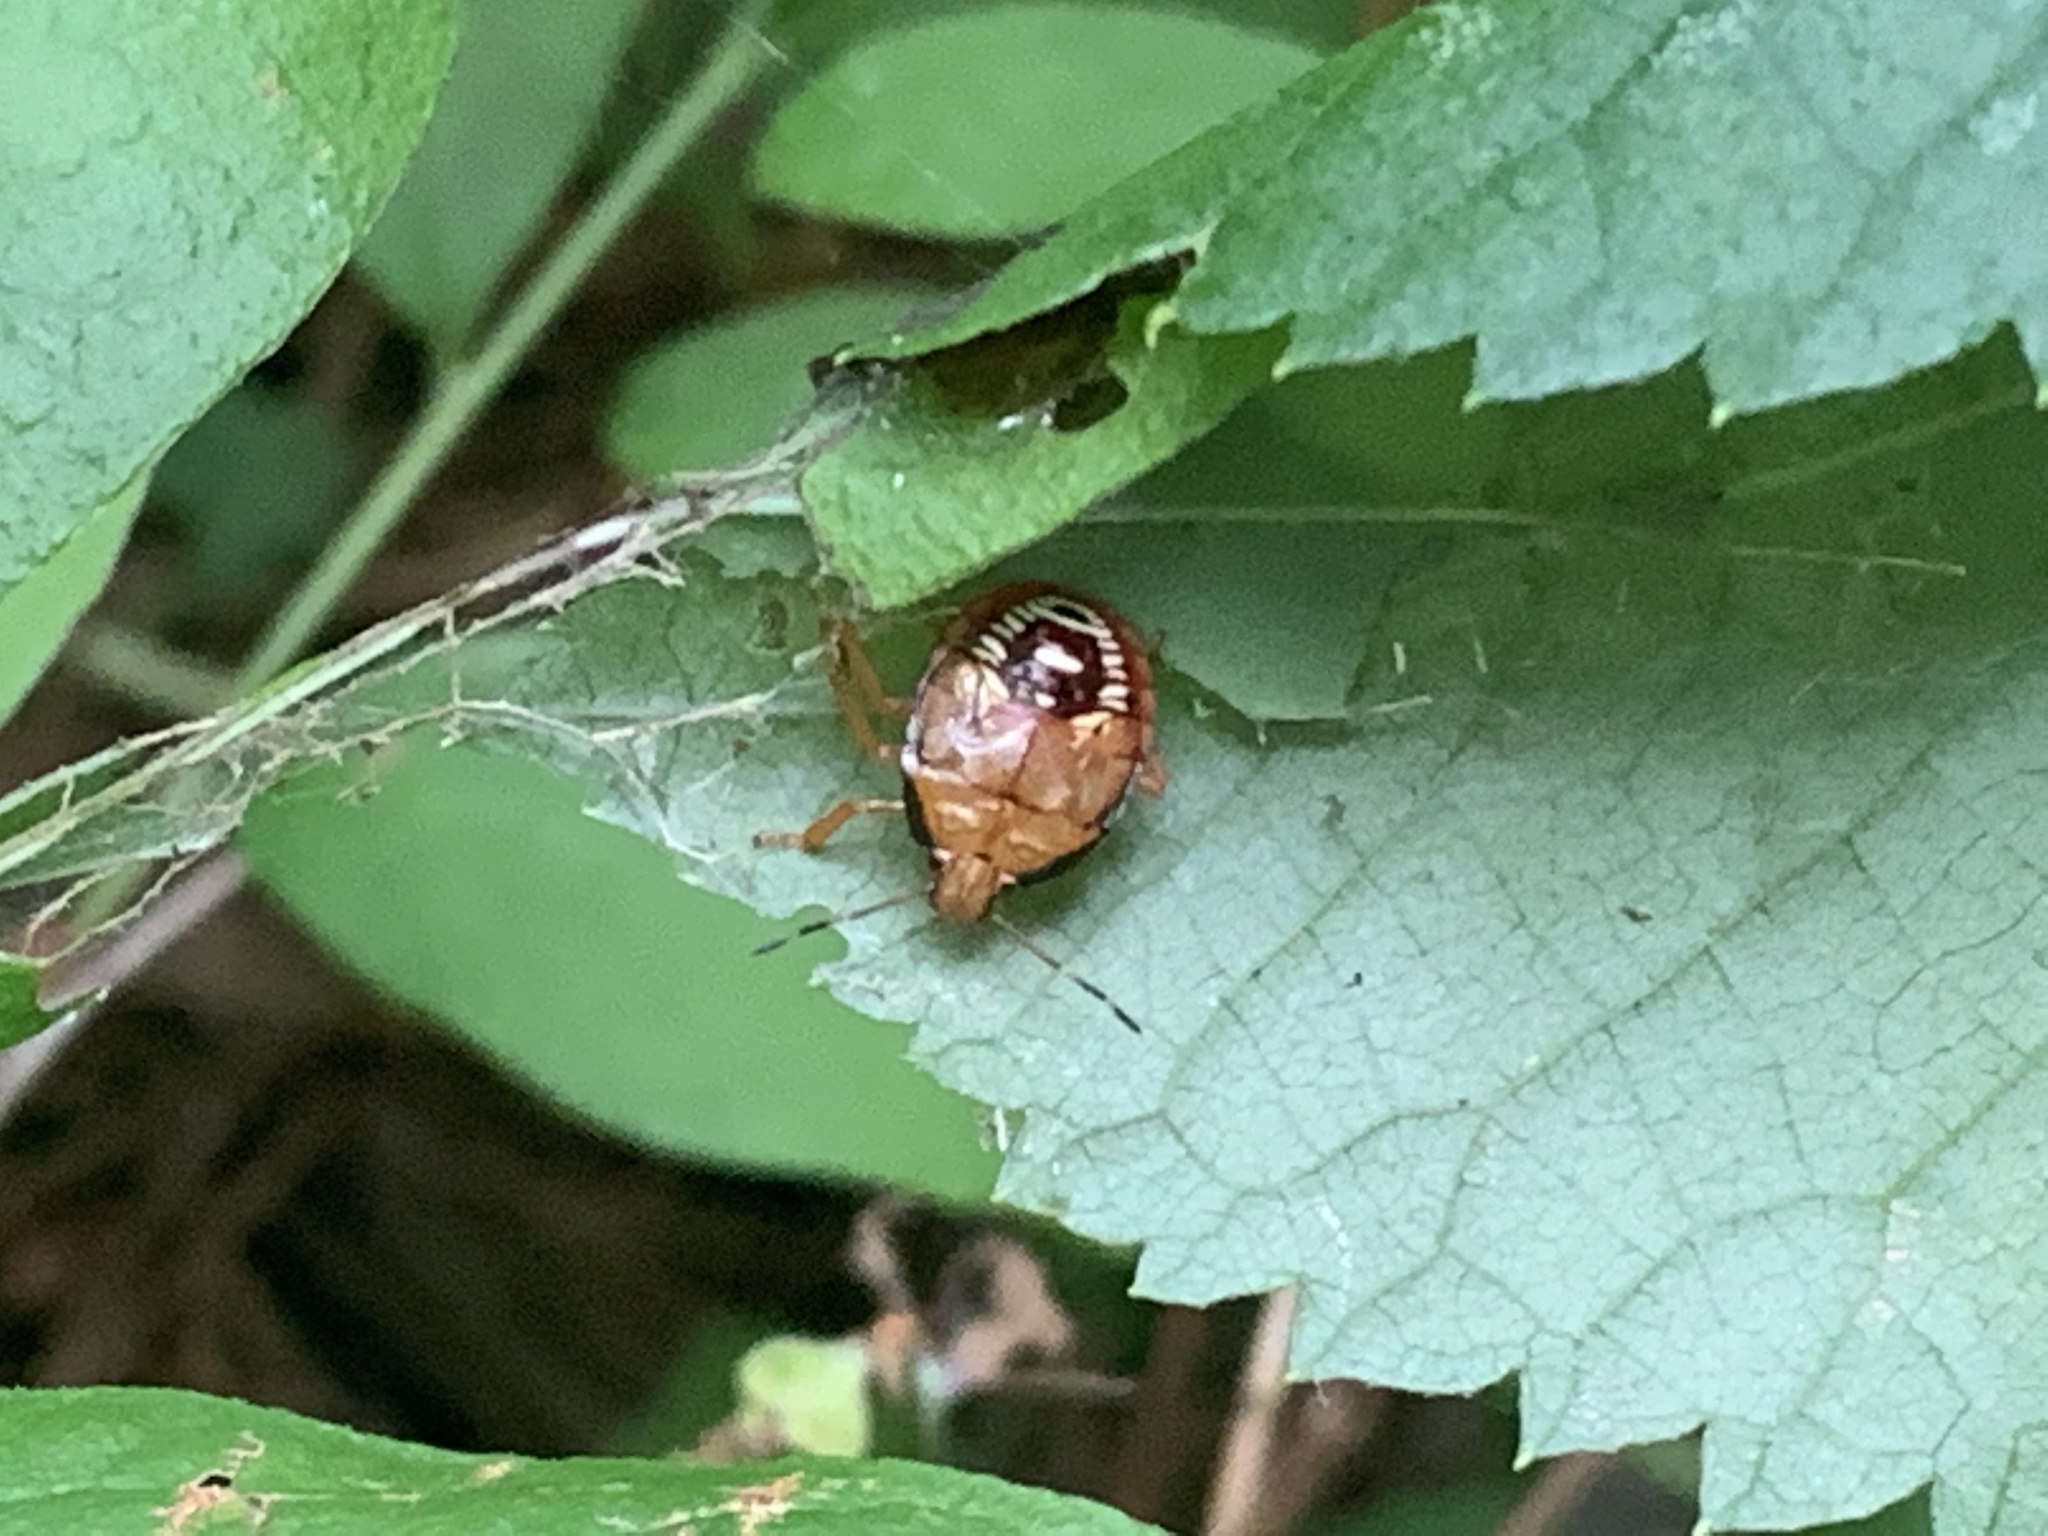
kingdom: Animalia
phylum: Arthropoda
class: Insecta
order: Hemiptera
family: Pentatomidae
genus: Podisus
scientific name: Podisus
